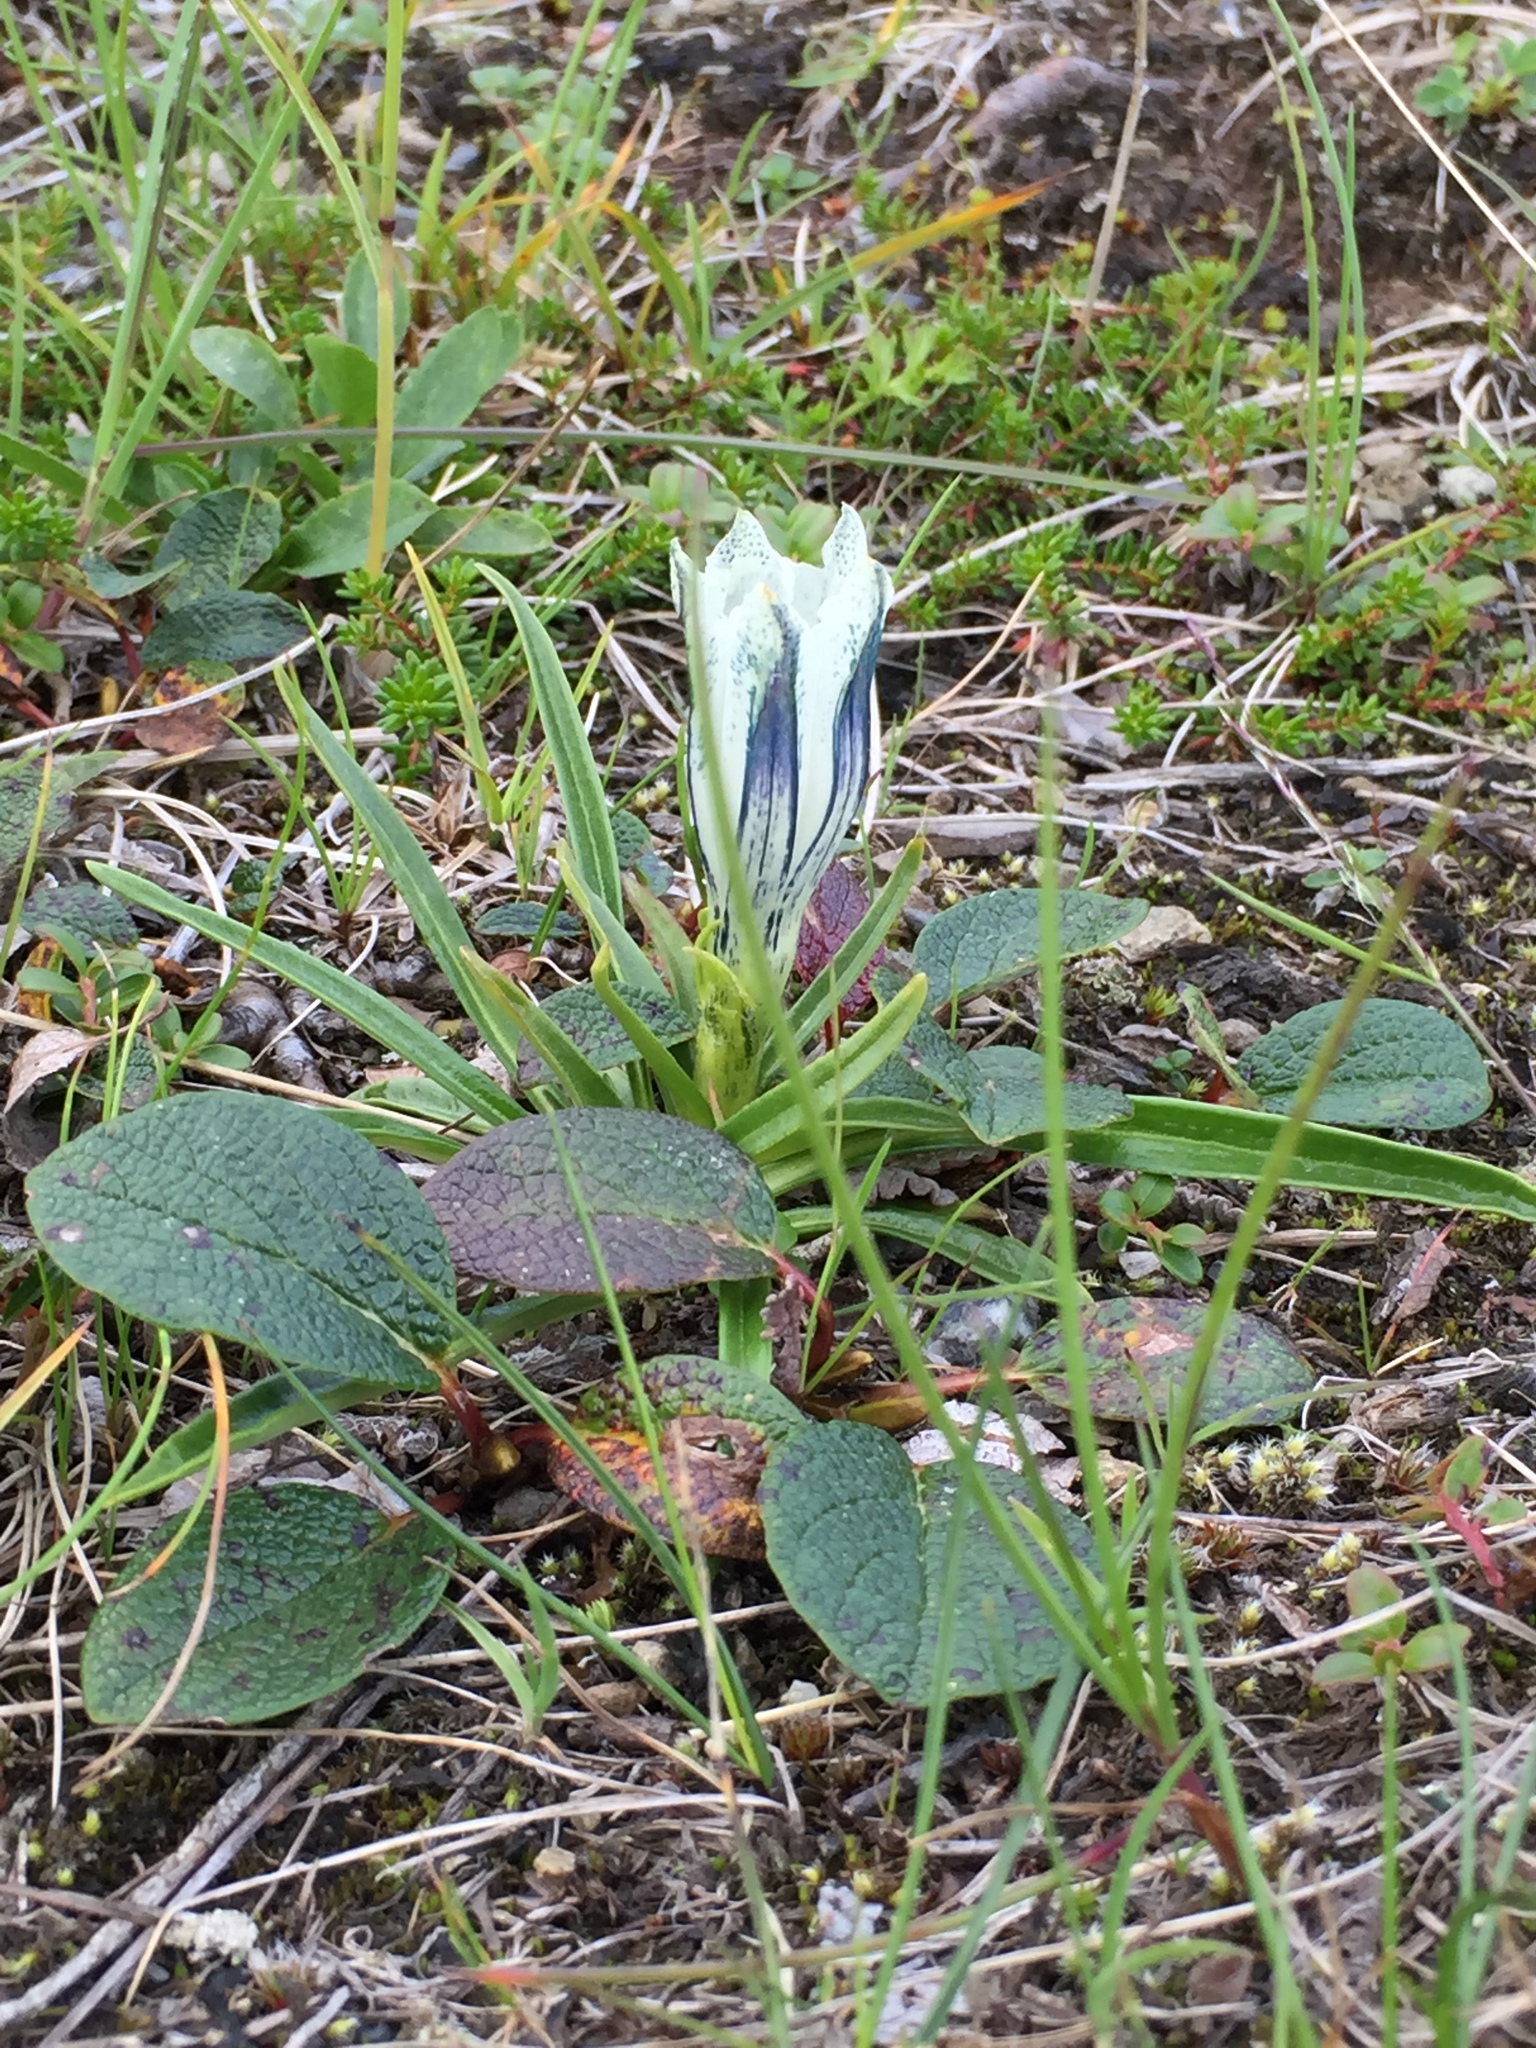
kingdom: Plantae
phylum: Tracheophyta
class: Magnoliopsida
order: Gentianales
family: Gentianaceae
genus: Gentiana
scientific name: Gentiana algida
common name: Arctic gentian
